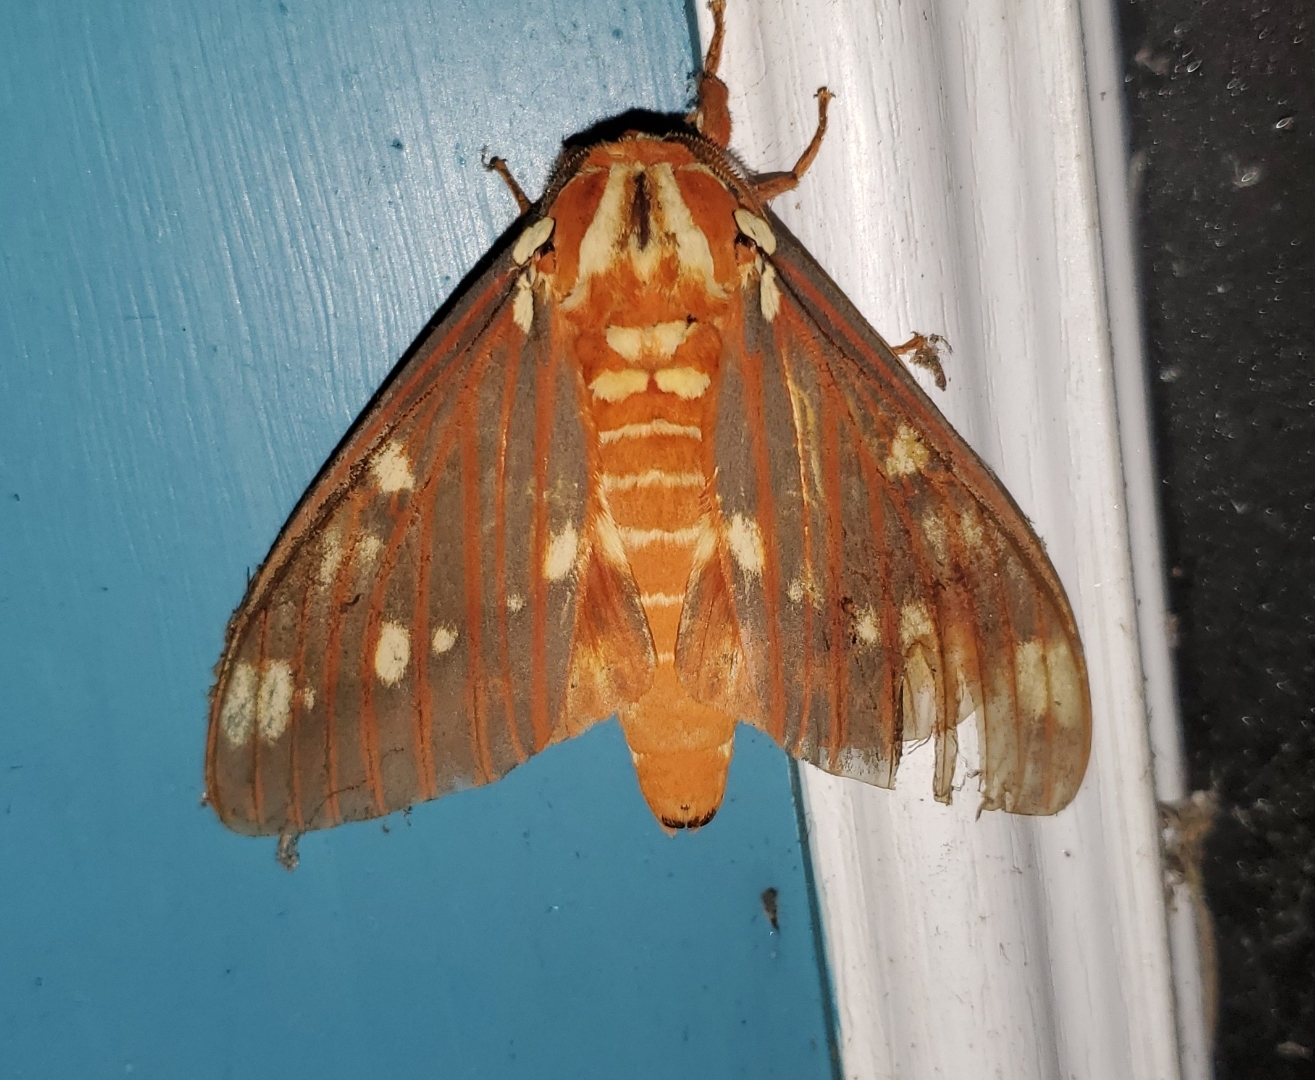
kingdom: Animalia
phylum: Arthropoda
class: Insecta
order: Lepidoptera
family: Saturniidae
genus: Citheronia
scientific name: Citheronia regalis
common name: Hickory horned devil
